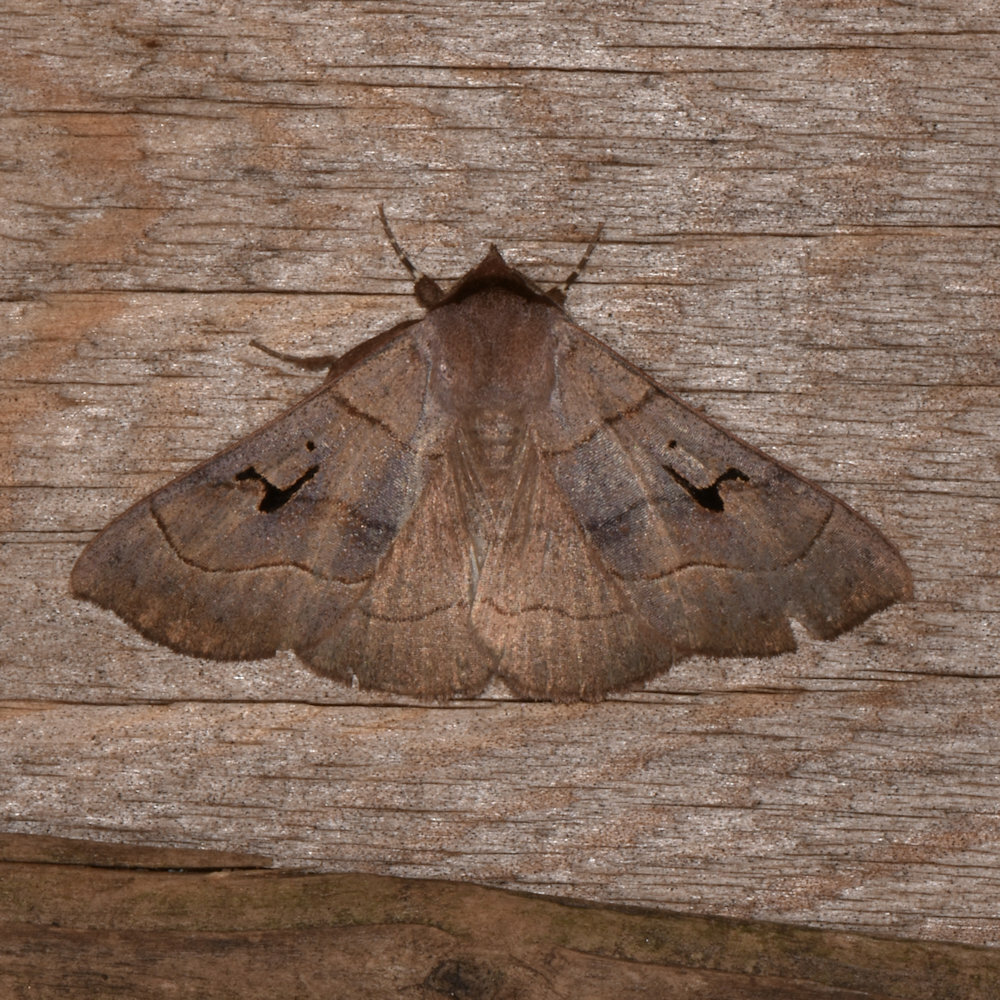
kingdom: Animalia
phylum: Arthropoda
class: Insecta
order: Lepidoptera
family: Erebidae
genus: Panopoda
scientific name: Panopoda carneicosta
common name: Brown panopoda moth
